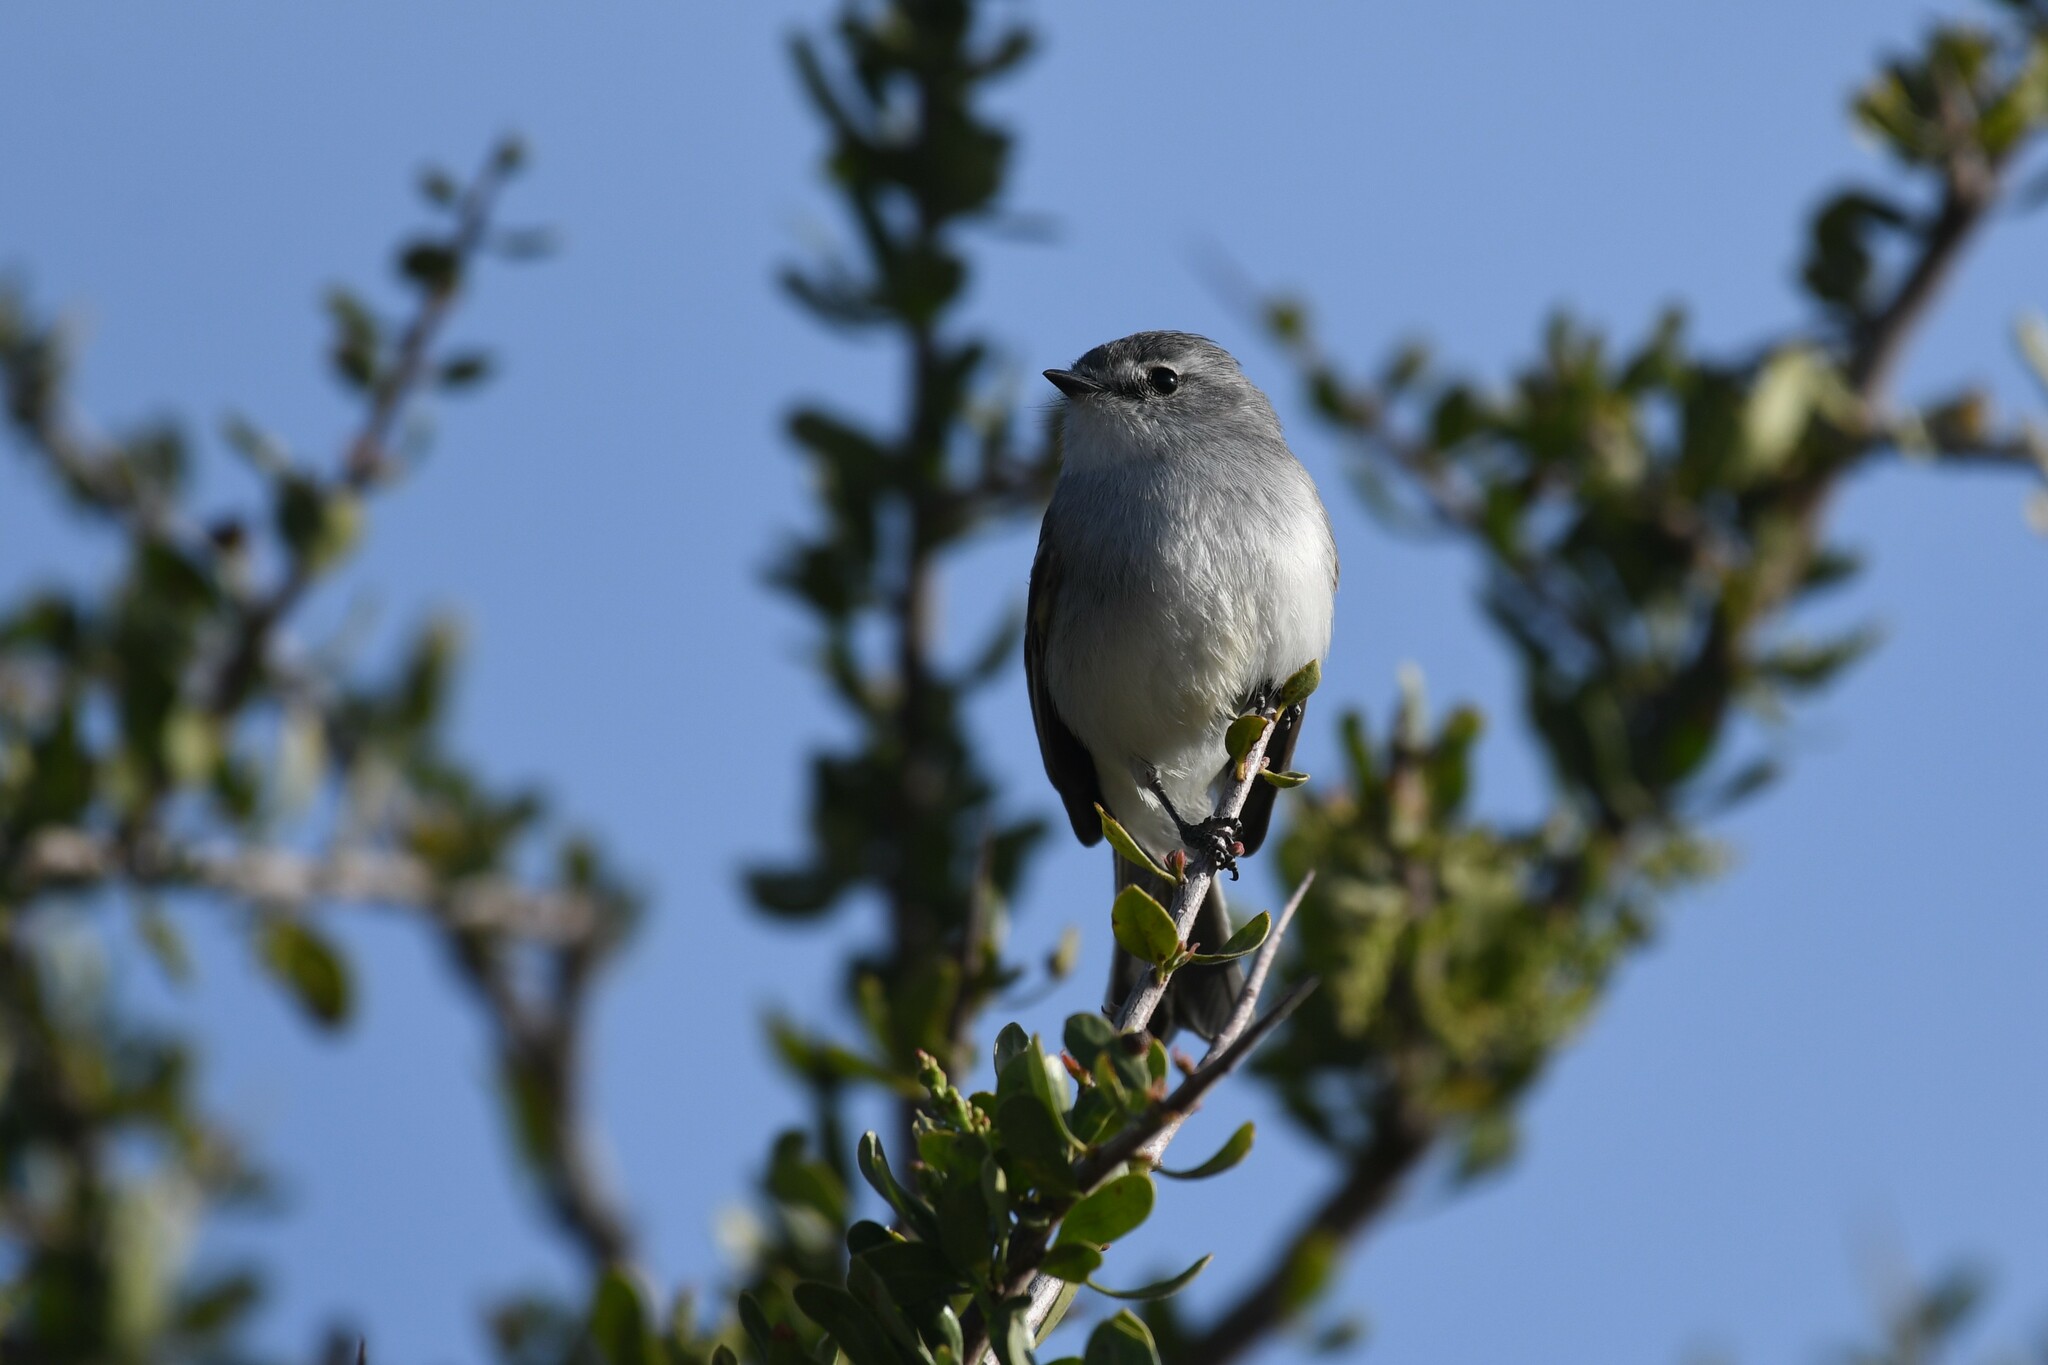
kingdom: Animalia
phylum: Chordata
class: Aves
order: Passeriformes
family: Tyrannidae
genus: Serpophaga
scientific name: Serpophaga subcristata
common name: White-crested tyrannulet
